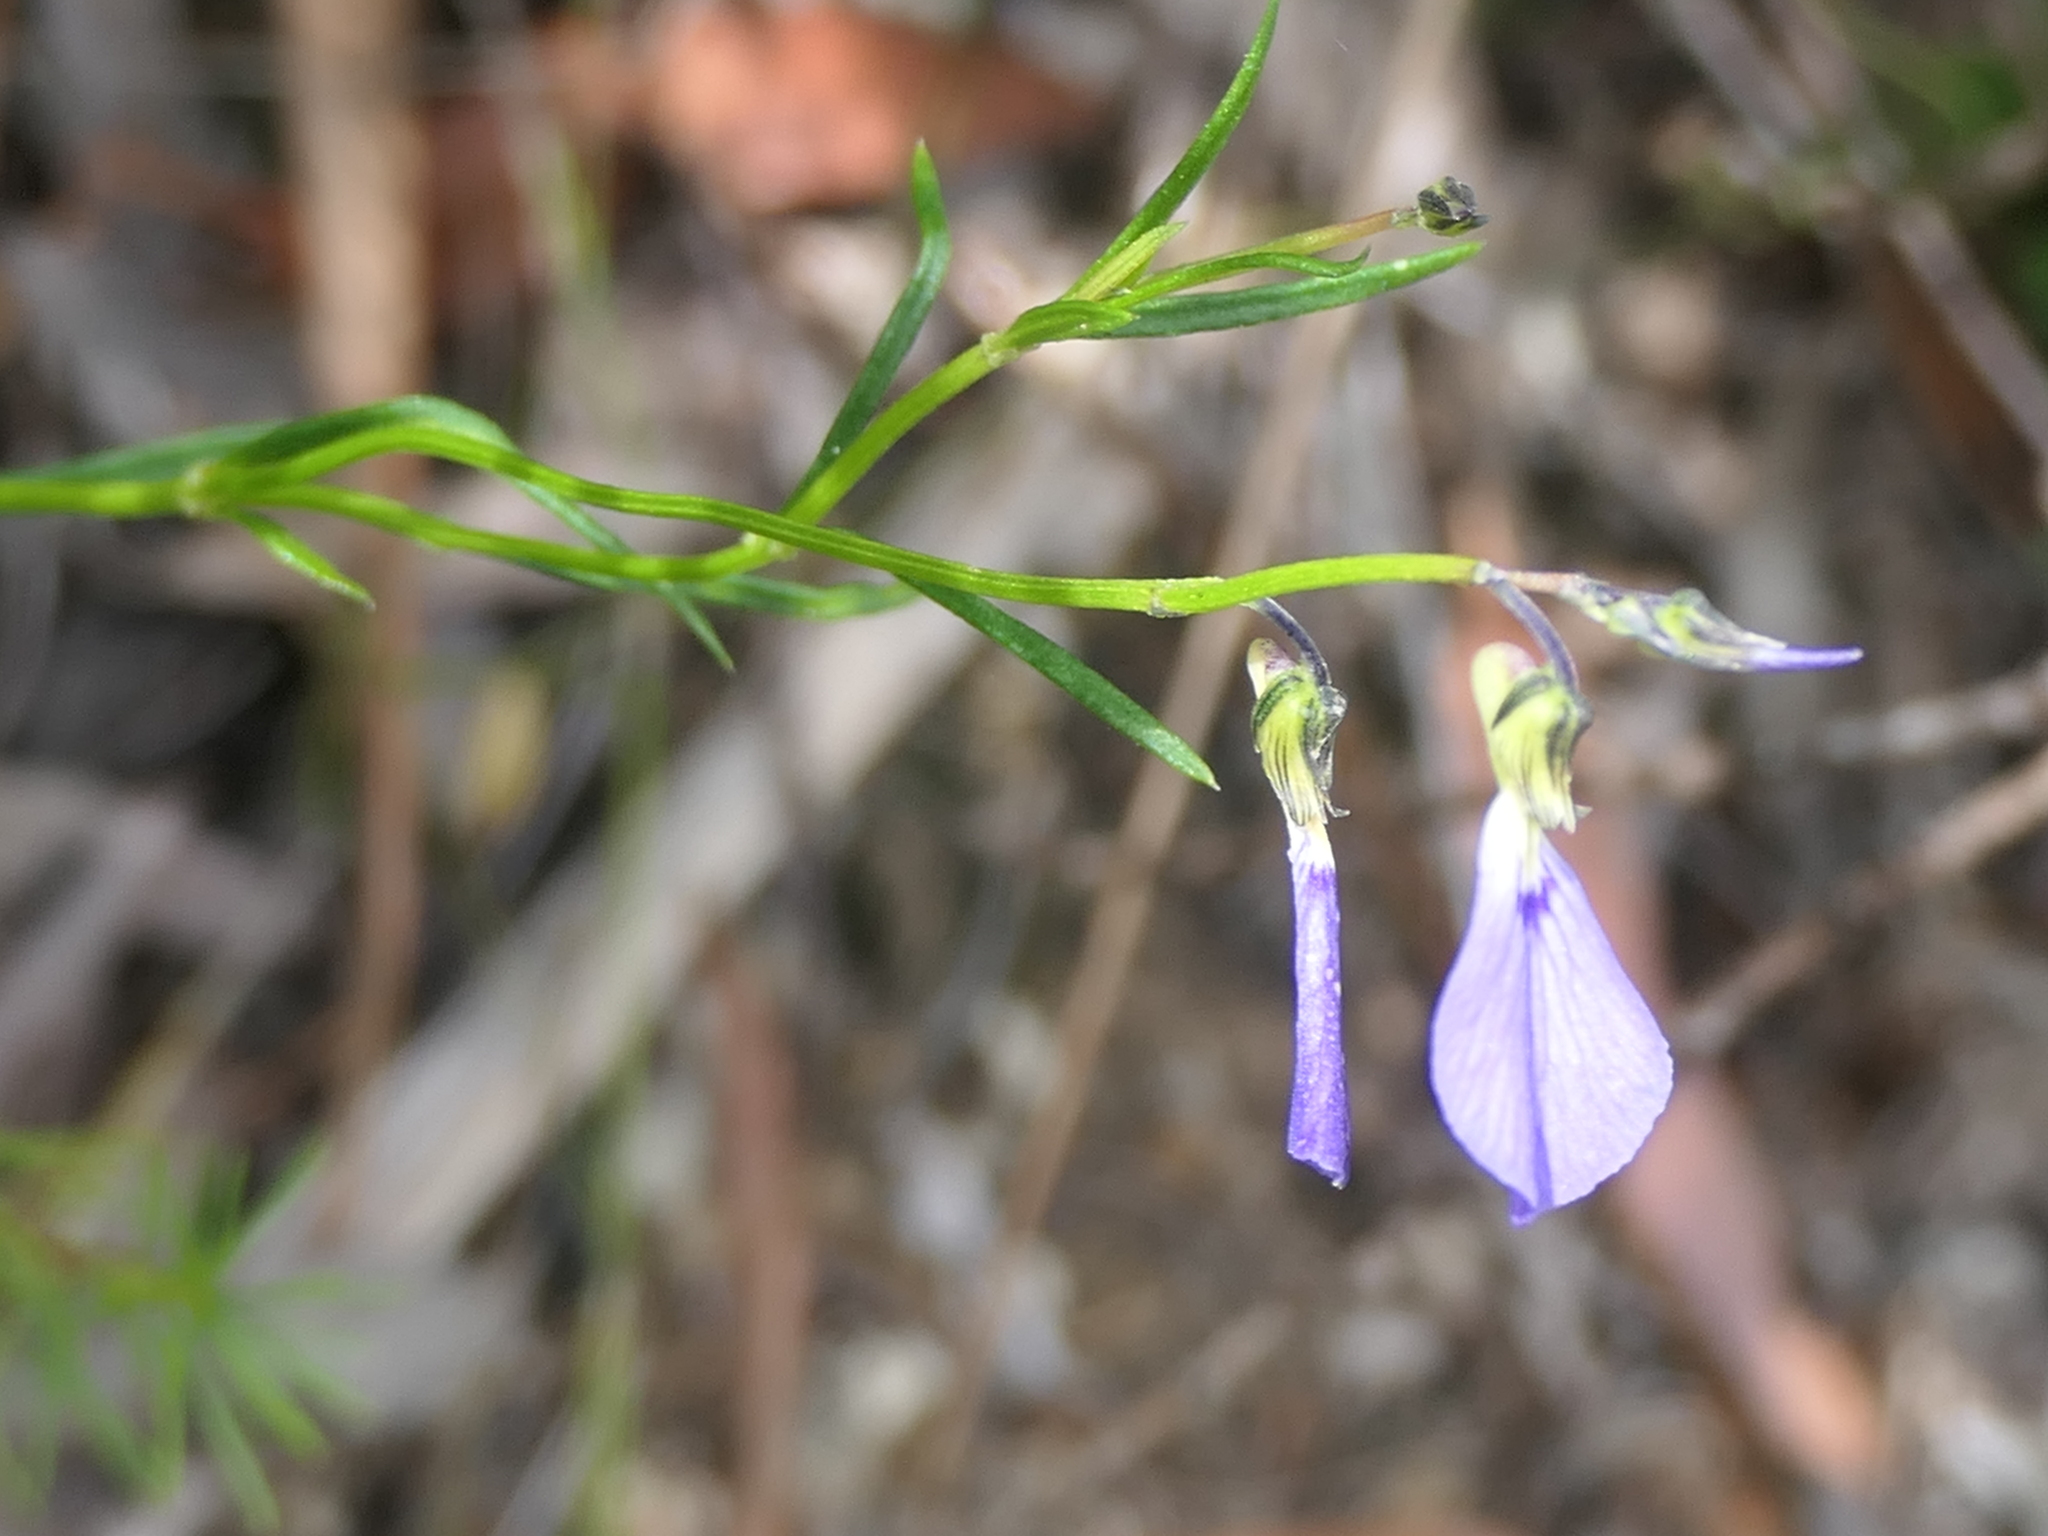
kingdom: Plantae
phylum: Tracheophyta
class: Magnoliopsida
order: Malpighiales
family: Violaceae
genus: Pigea
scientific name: Pigea vernonii
